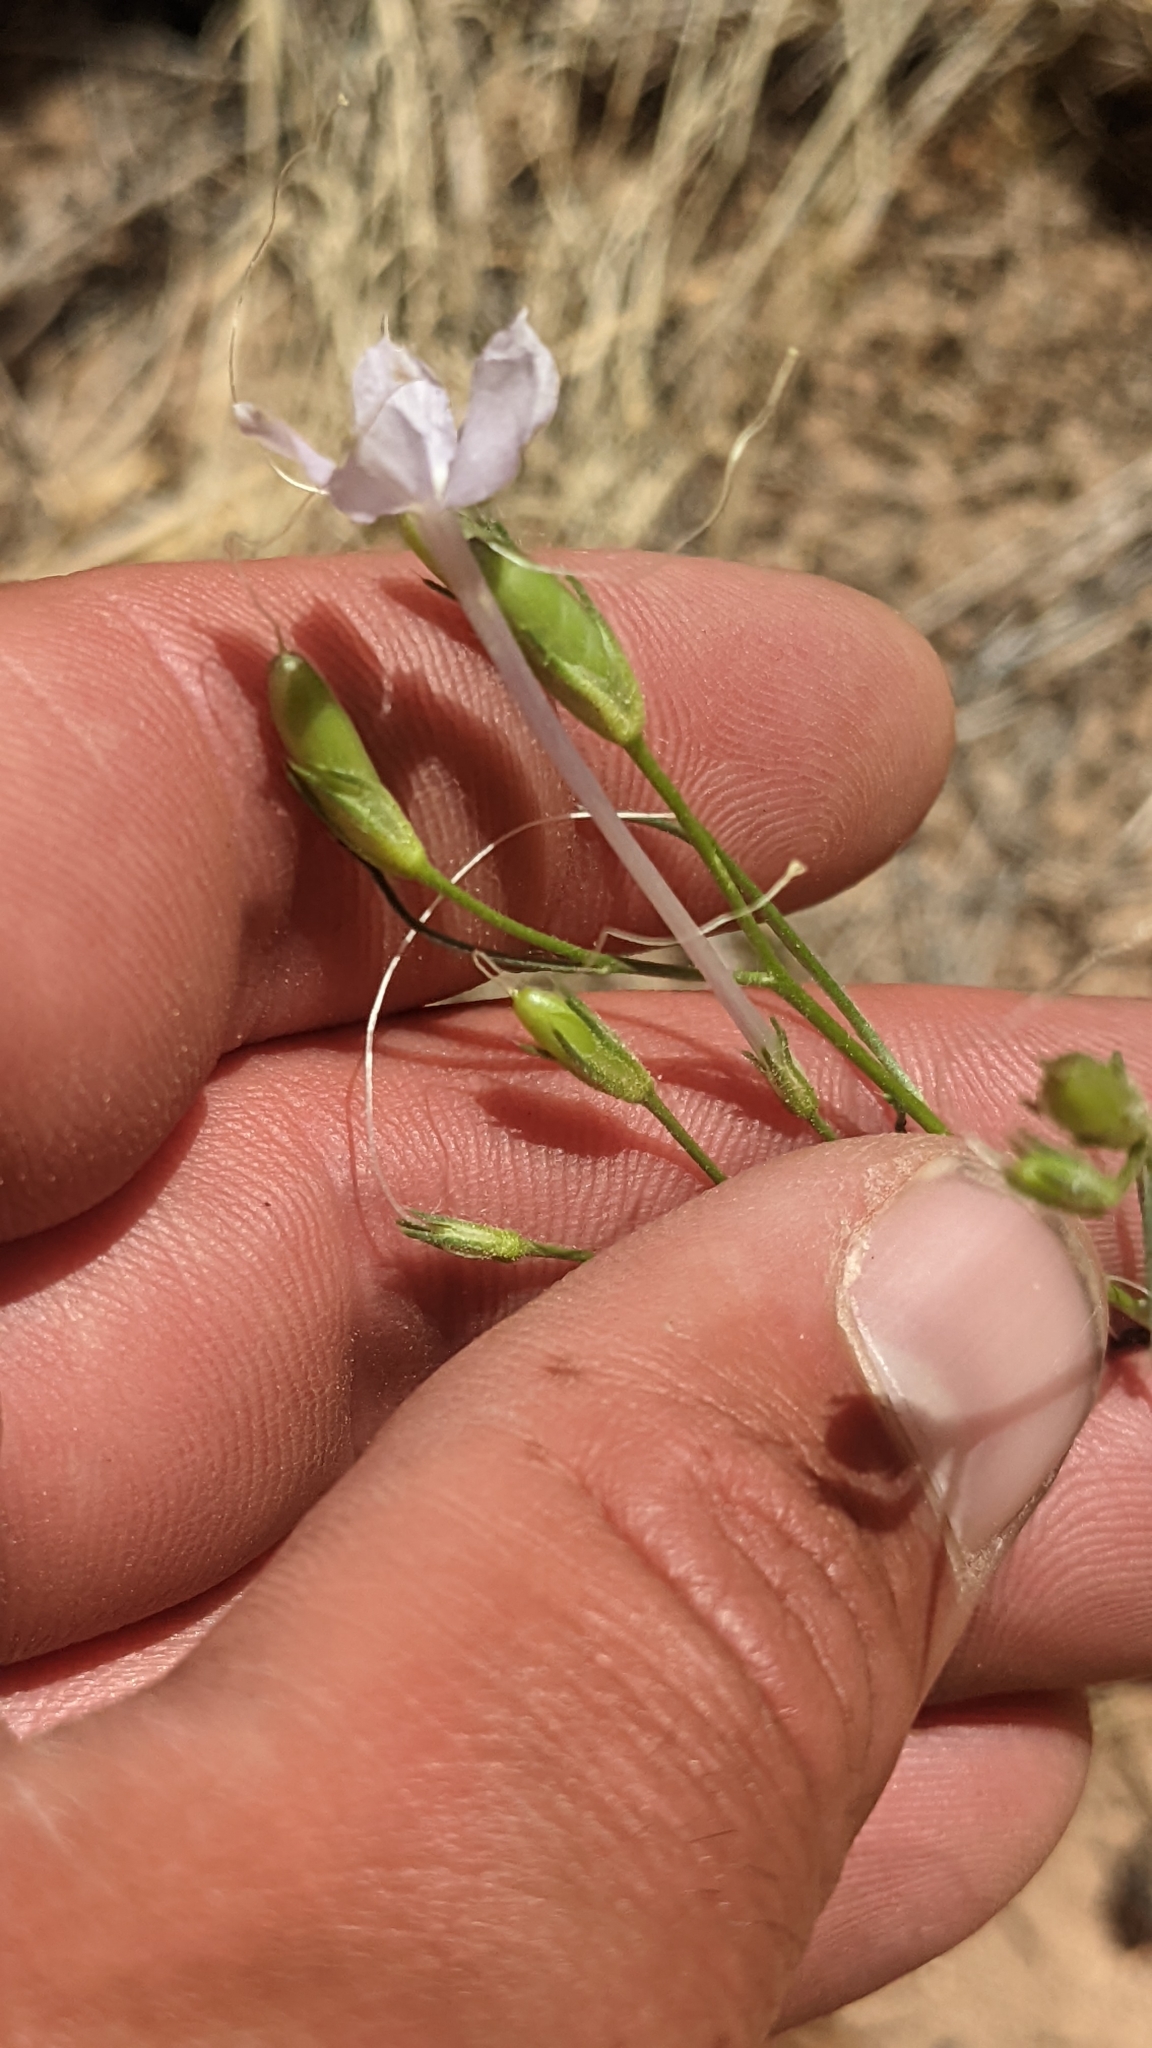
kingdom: Plantae
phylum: Tracheophyta
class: Magnoliopsida
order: Ericales
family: Polemoniaceae
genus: Ipomopsis
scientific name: Ipomopsis longiflora
